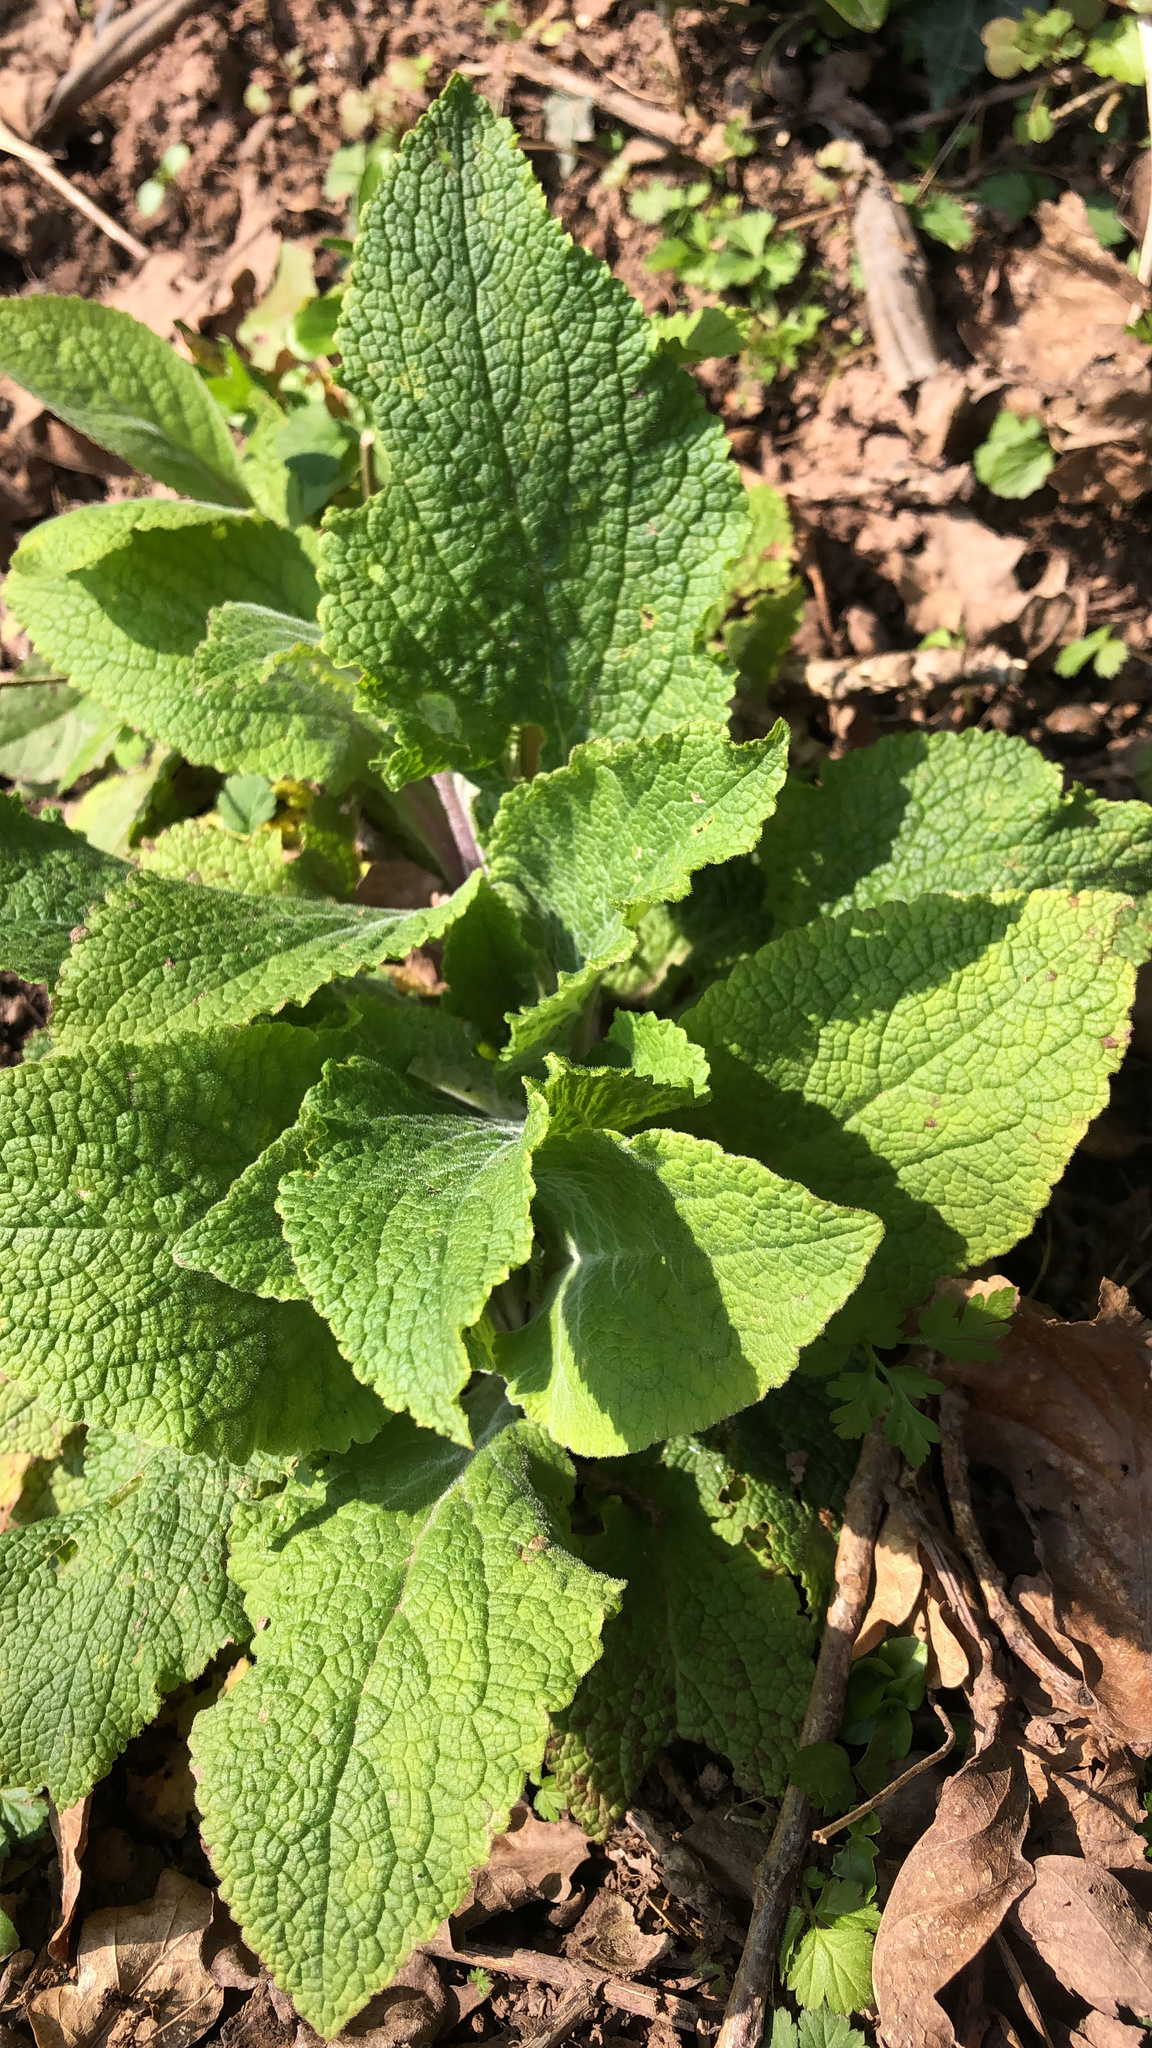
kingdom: Plantae
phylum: Tracheophyta
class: Magnoliopsida
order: Lamiales
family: Plantaginaceae
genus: Digitalis
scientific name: Digitalis purpurea
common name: Foxglove
